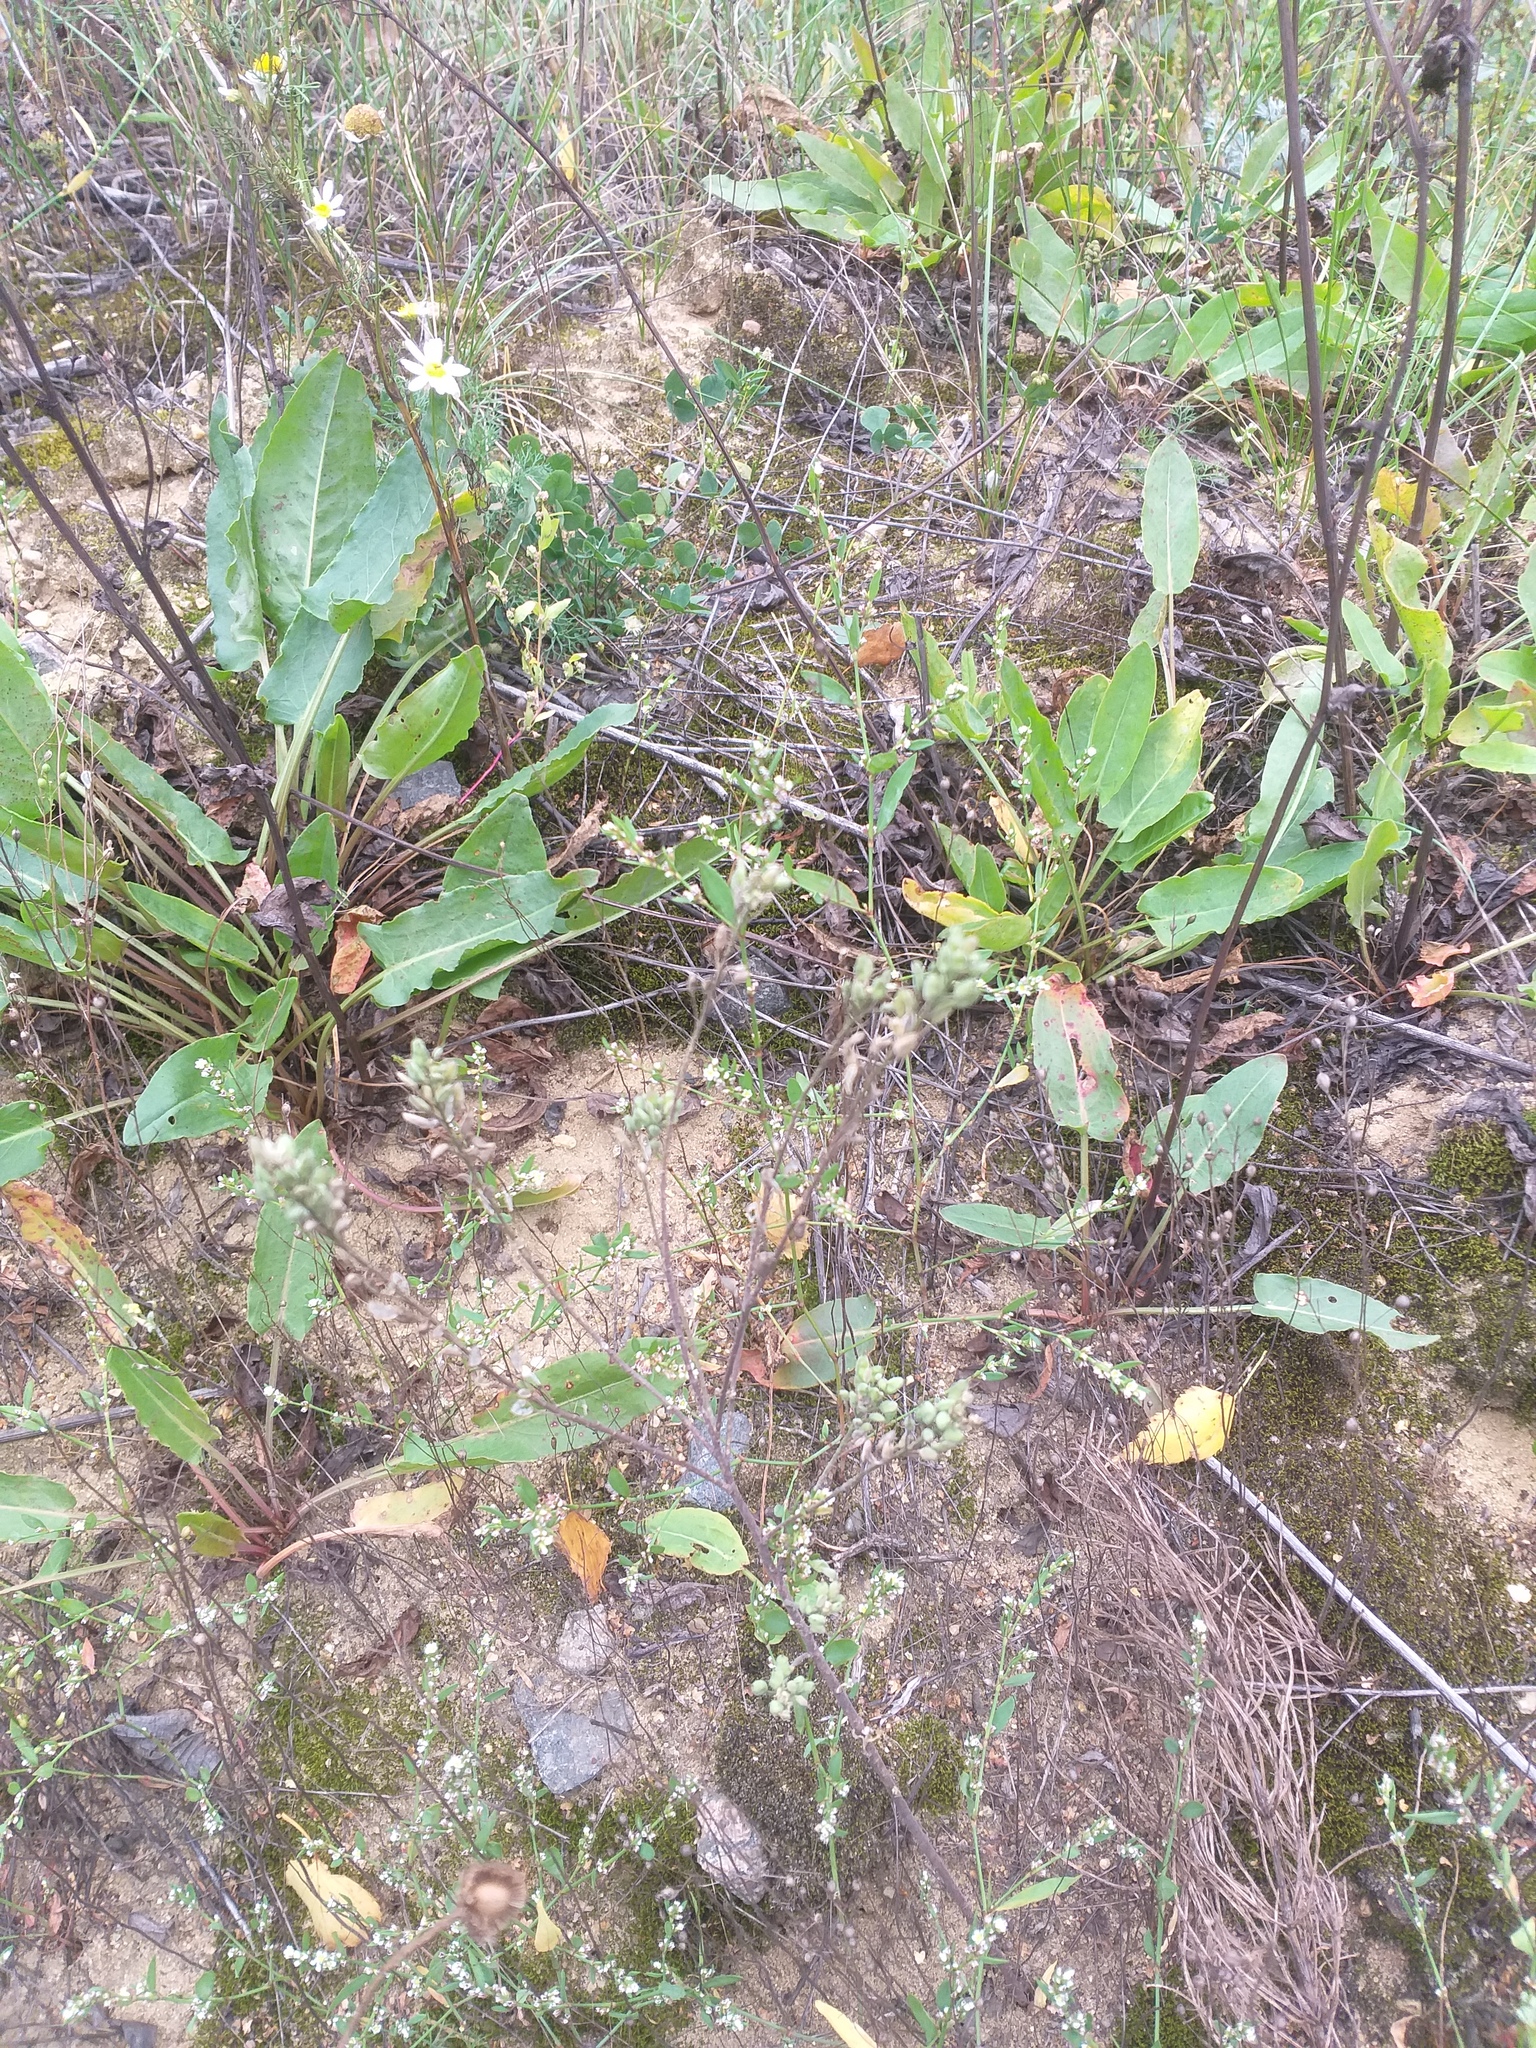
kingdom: Plantae
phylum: Tracheophyta
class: Magnoliopsida
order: Brassicales
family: Brassicaceae
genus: Berteroa
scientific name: Berteroa incana
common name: Hoary alison
